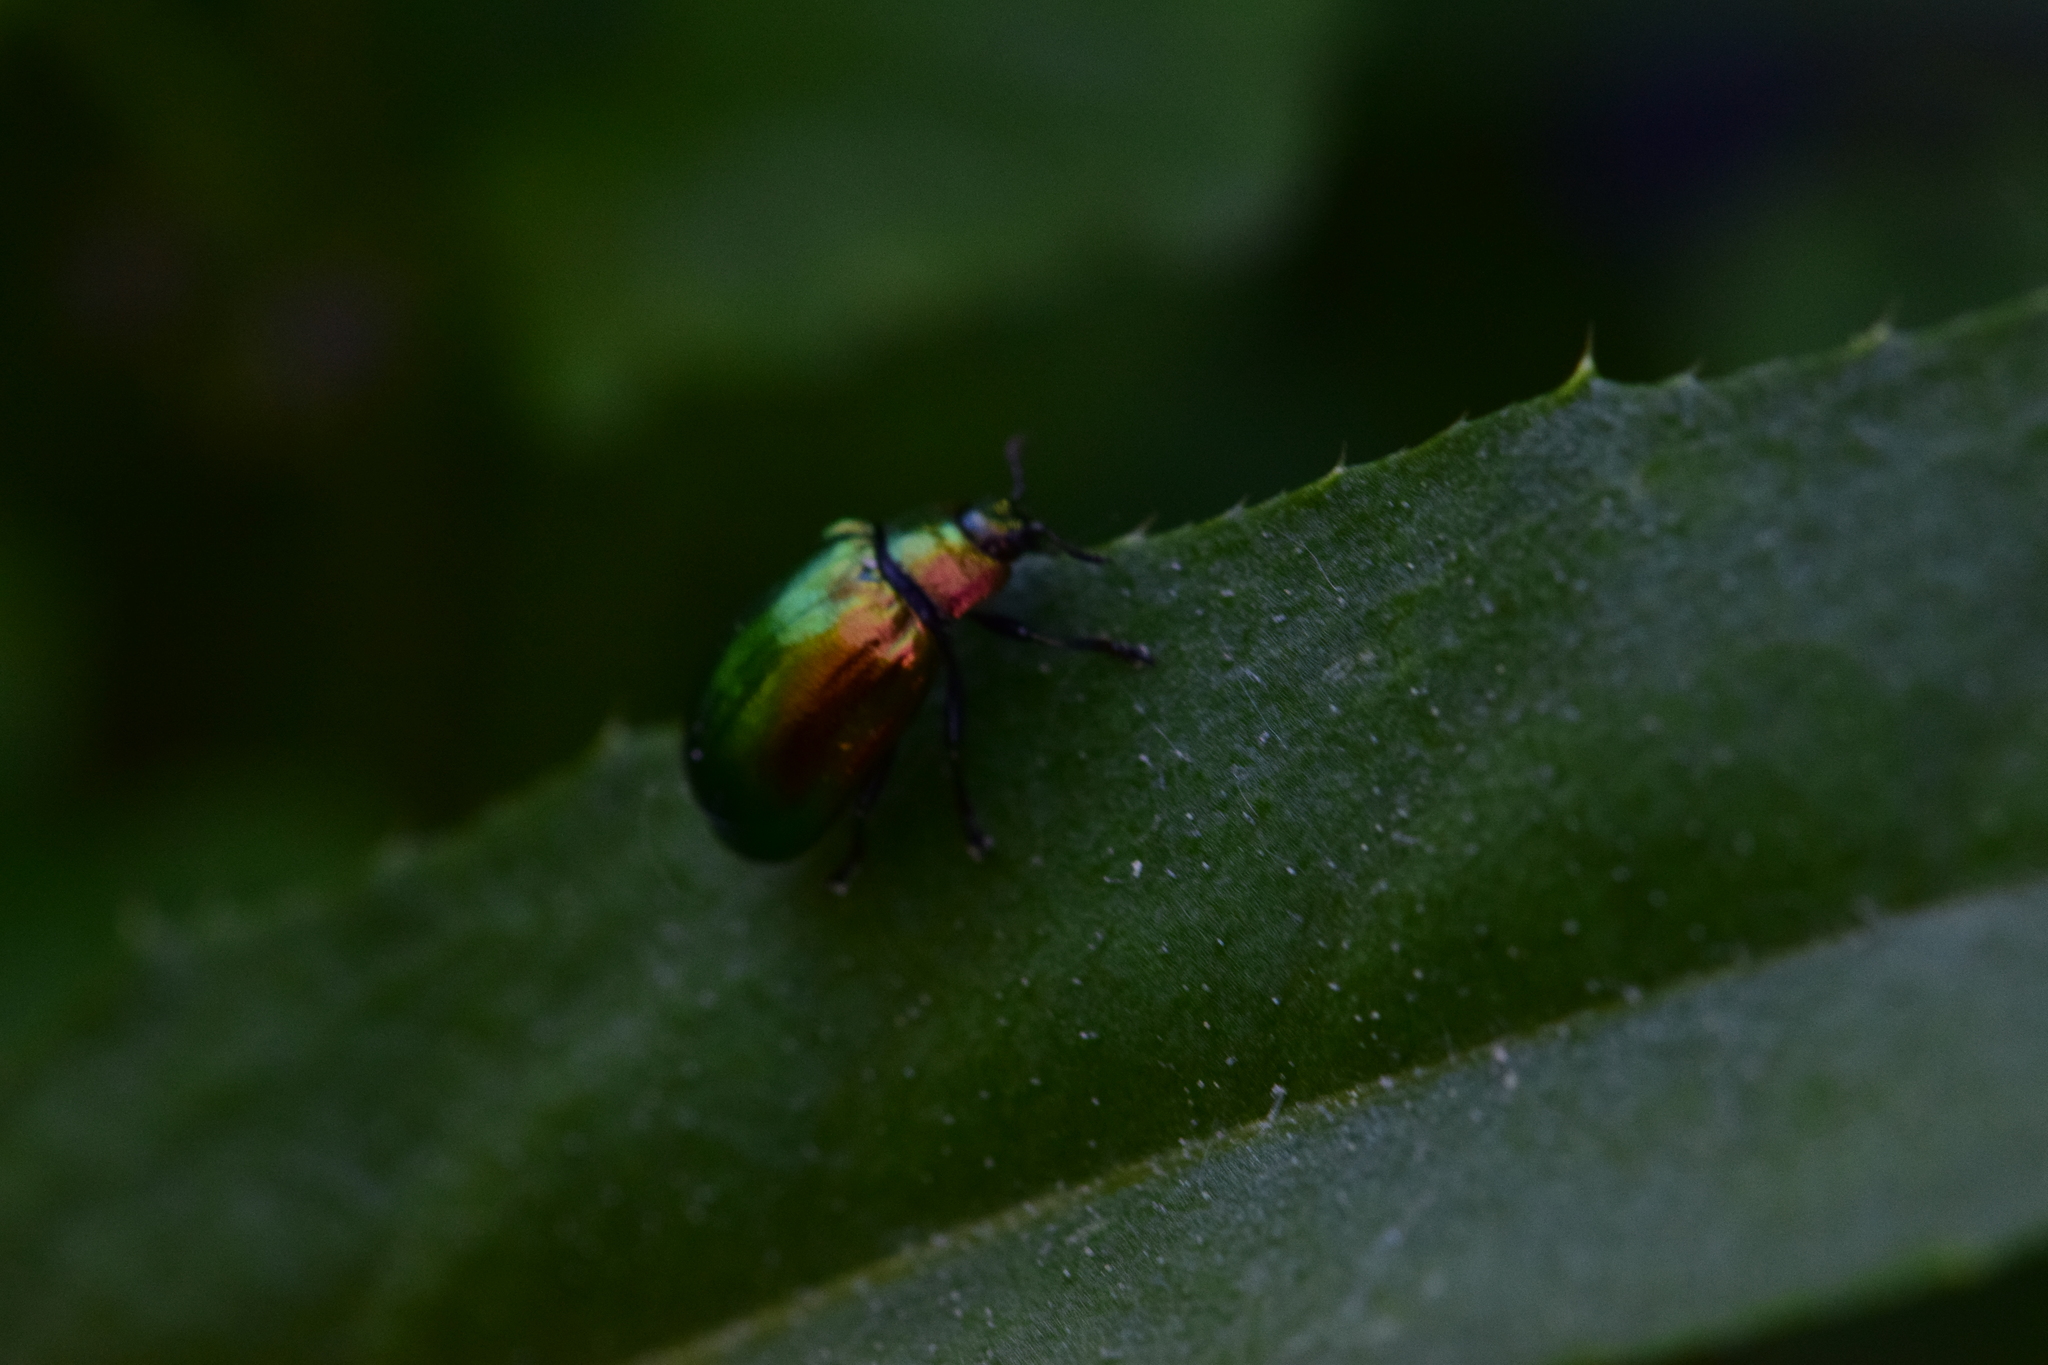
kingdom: Animalia
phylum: Arthropoda
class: Insecta
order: Coleoptera
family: Chrysomelidae
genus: Plagiosterna
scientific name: Plagiosterna aenea
